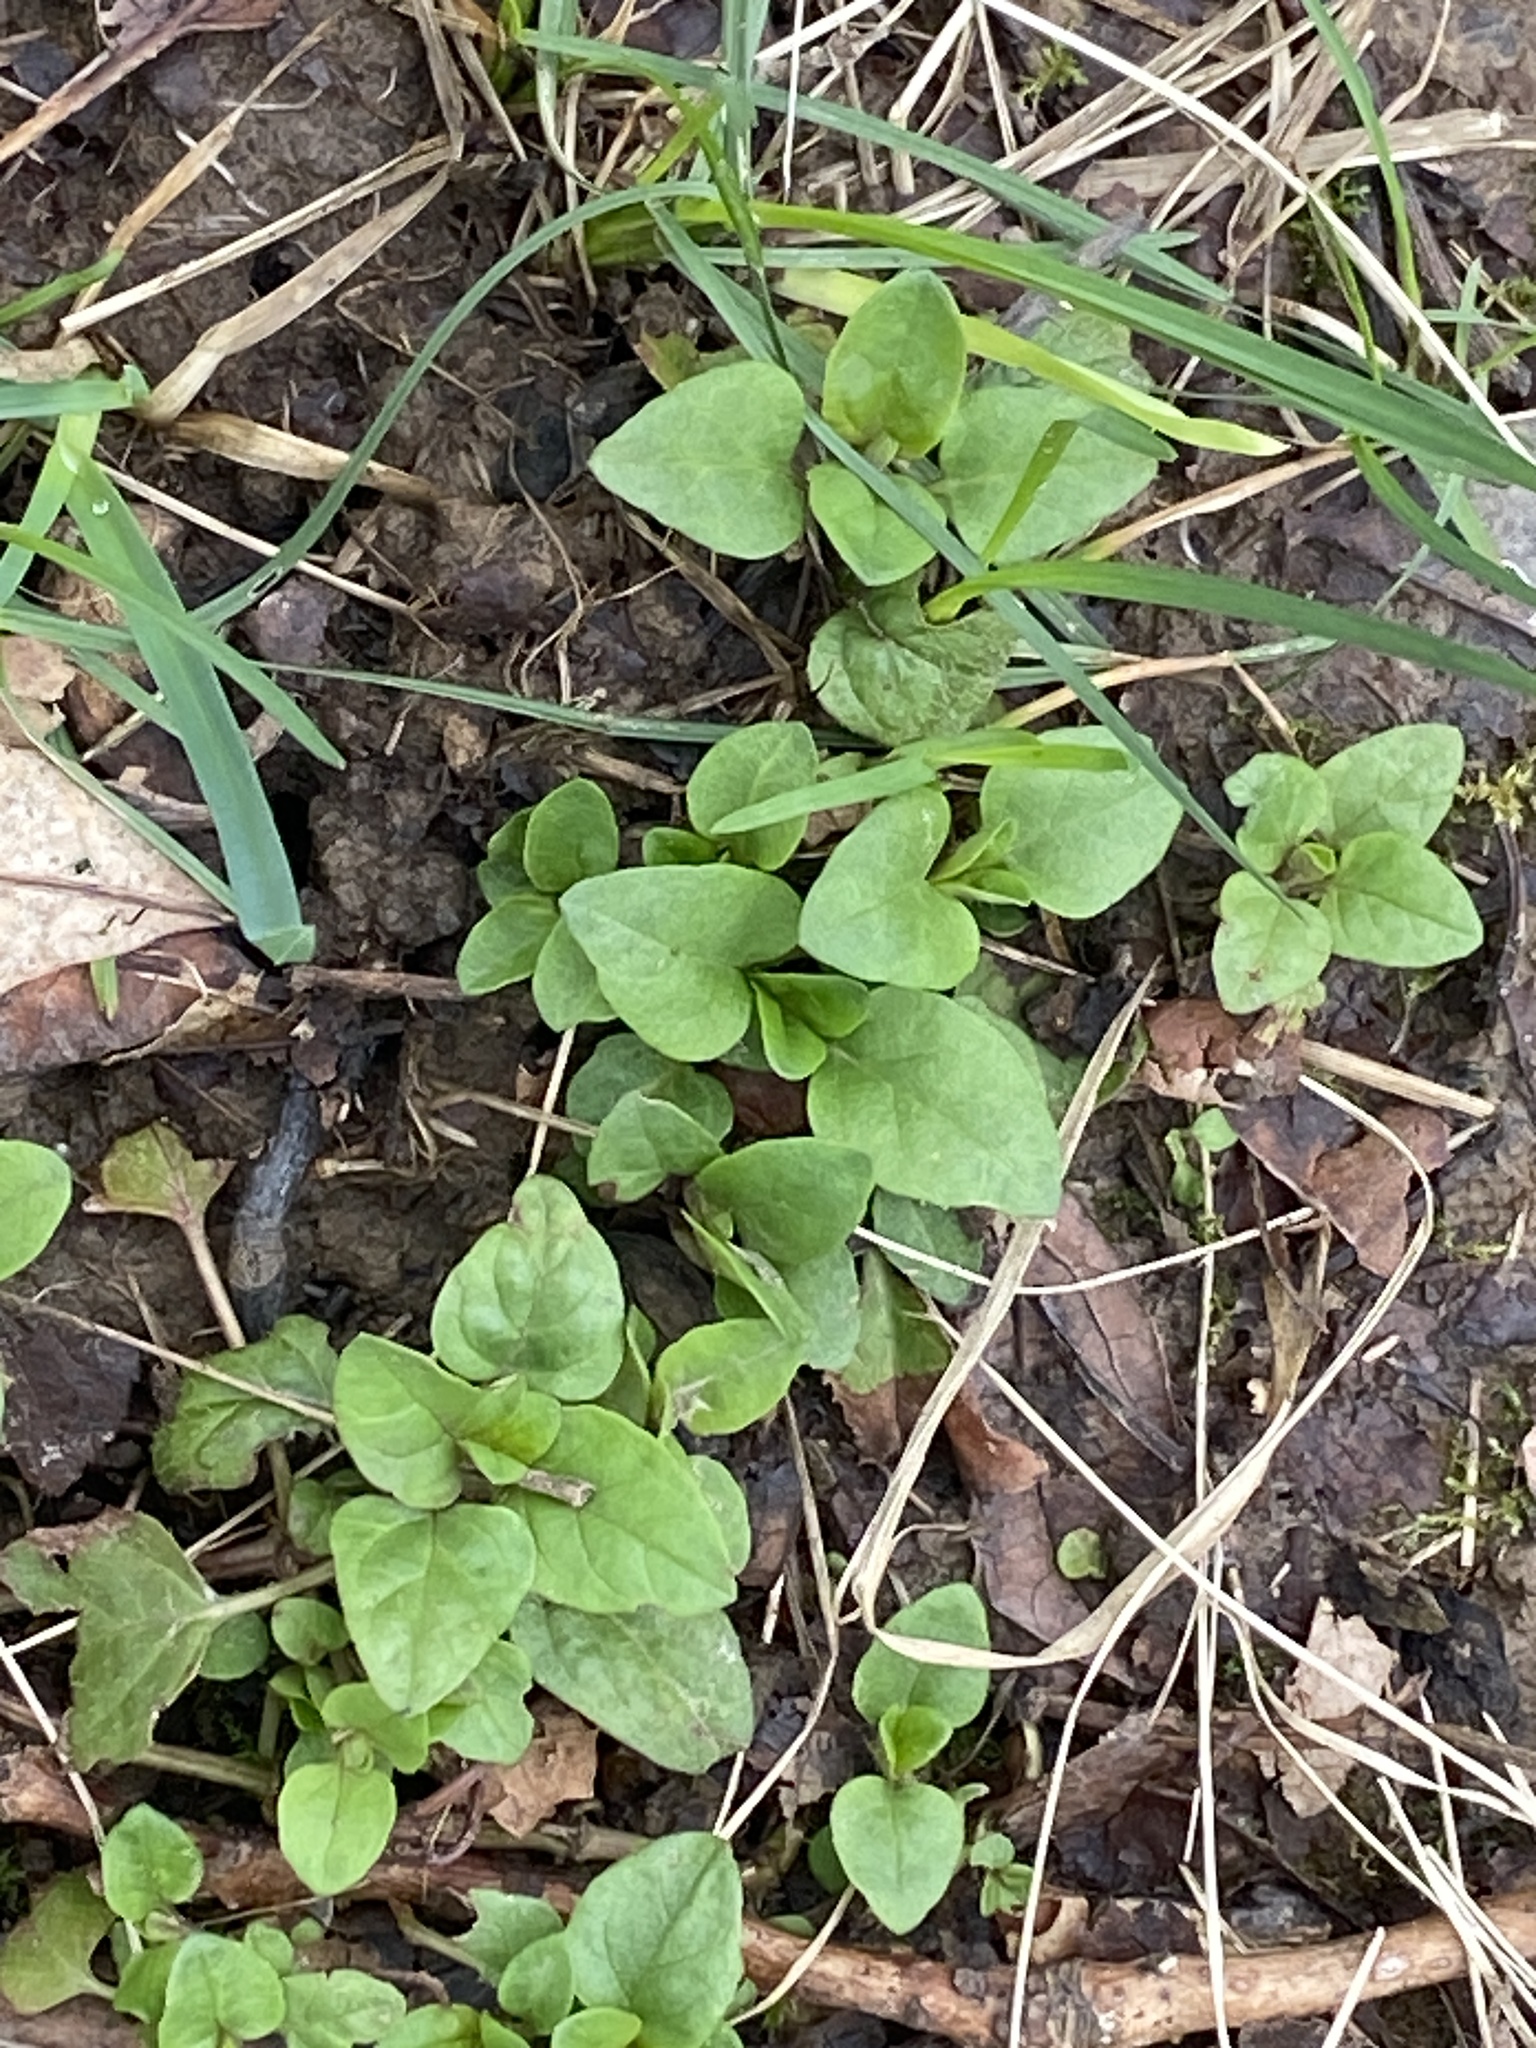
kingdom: Plantae
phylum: Tracheophyta
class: Magnoliopsida
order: Lamiales
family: Lamiaceae
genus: Prunella
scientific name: Prunella vulgaris
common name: Heal-all
